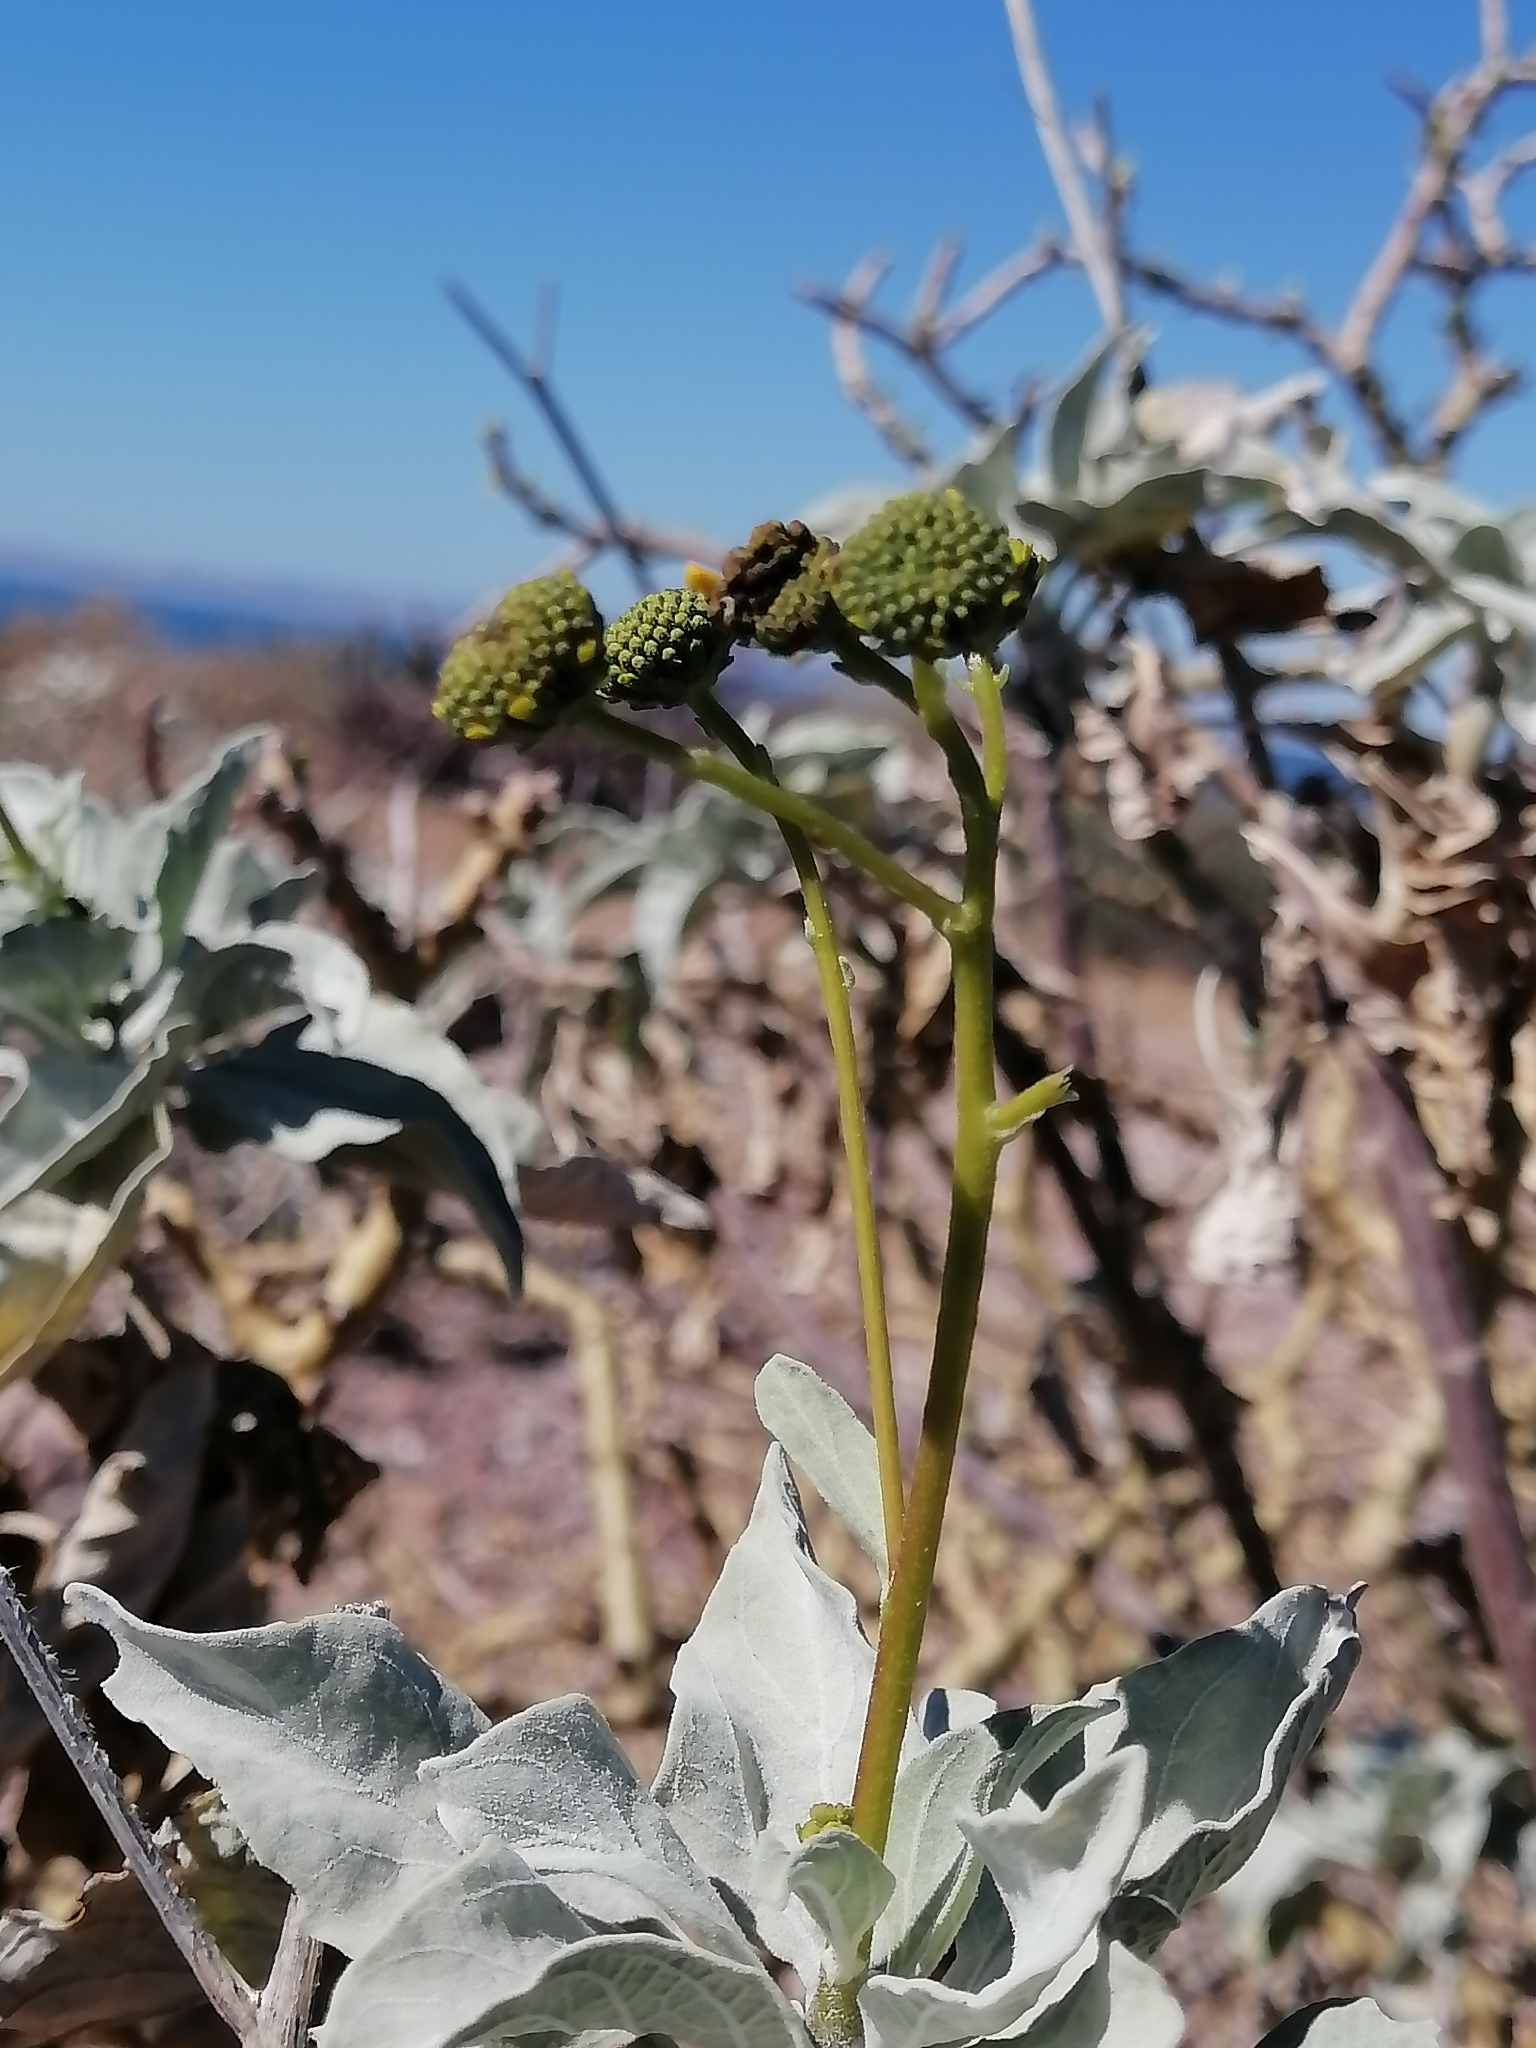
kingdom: Plantae
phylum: Tracheophyta
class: Magnoliopsida
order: Asterales
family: Asteraceae
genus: Encelia
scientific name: Encelia farinosa
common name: Brittlebush
